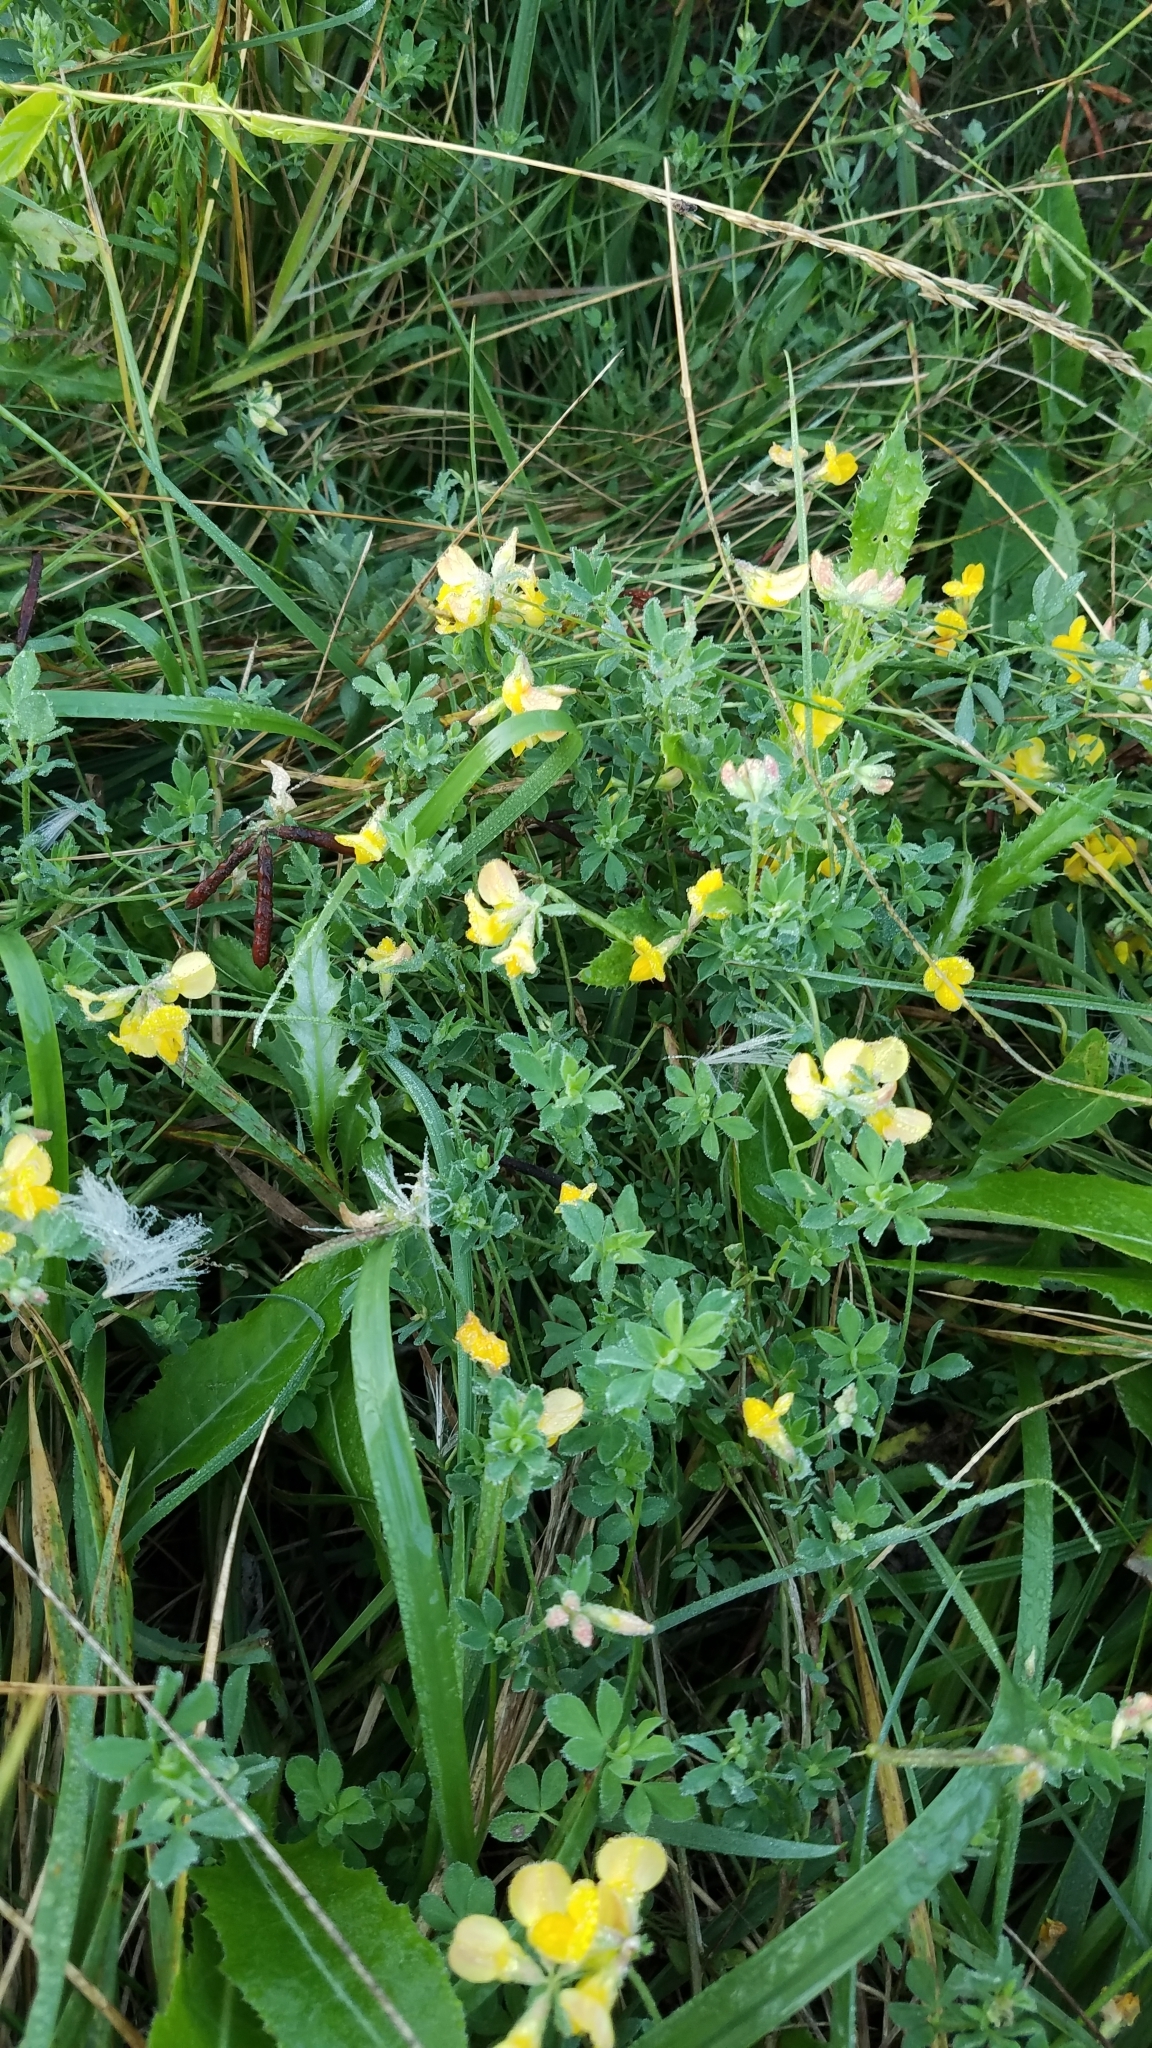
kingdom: Plantae
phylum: Tracheophyta
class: Magnoliopsida
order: Fabales
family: Fabaceae
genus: Lotus
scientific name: Lotus corniculatus
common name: Common bird's-foot-trefoil
